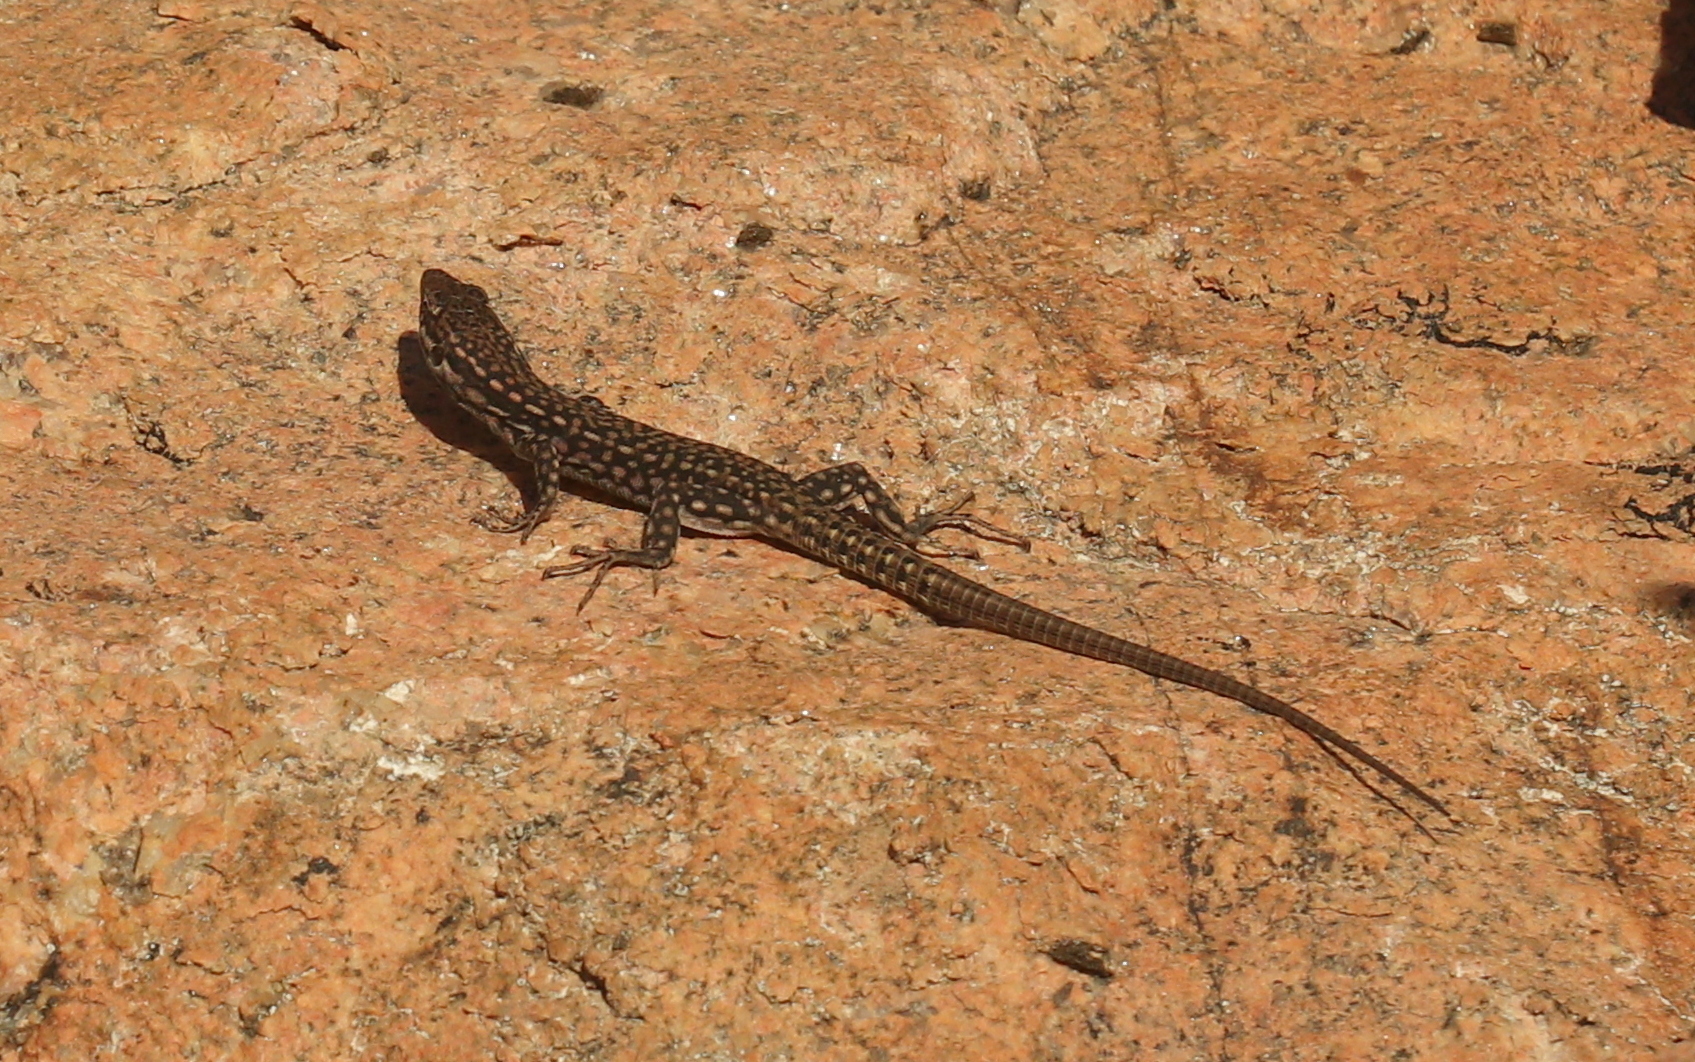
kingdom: Animalia
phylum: Chordata
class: Squamata
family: Lacertidae
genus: Podarcis
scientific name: Podarcis virescens
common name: Geniez’s wall lizard
